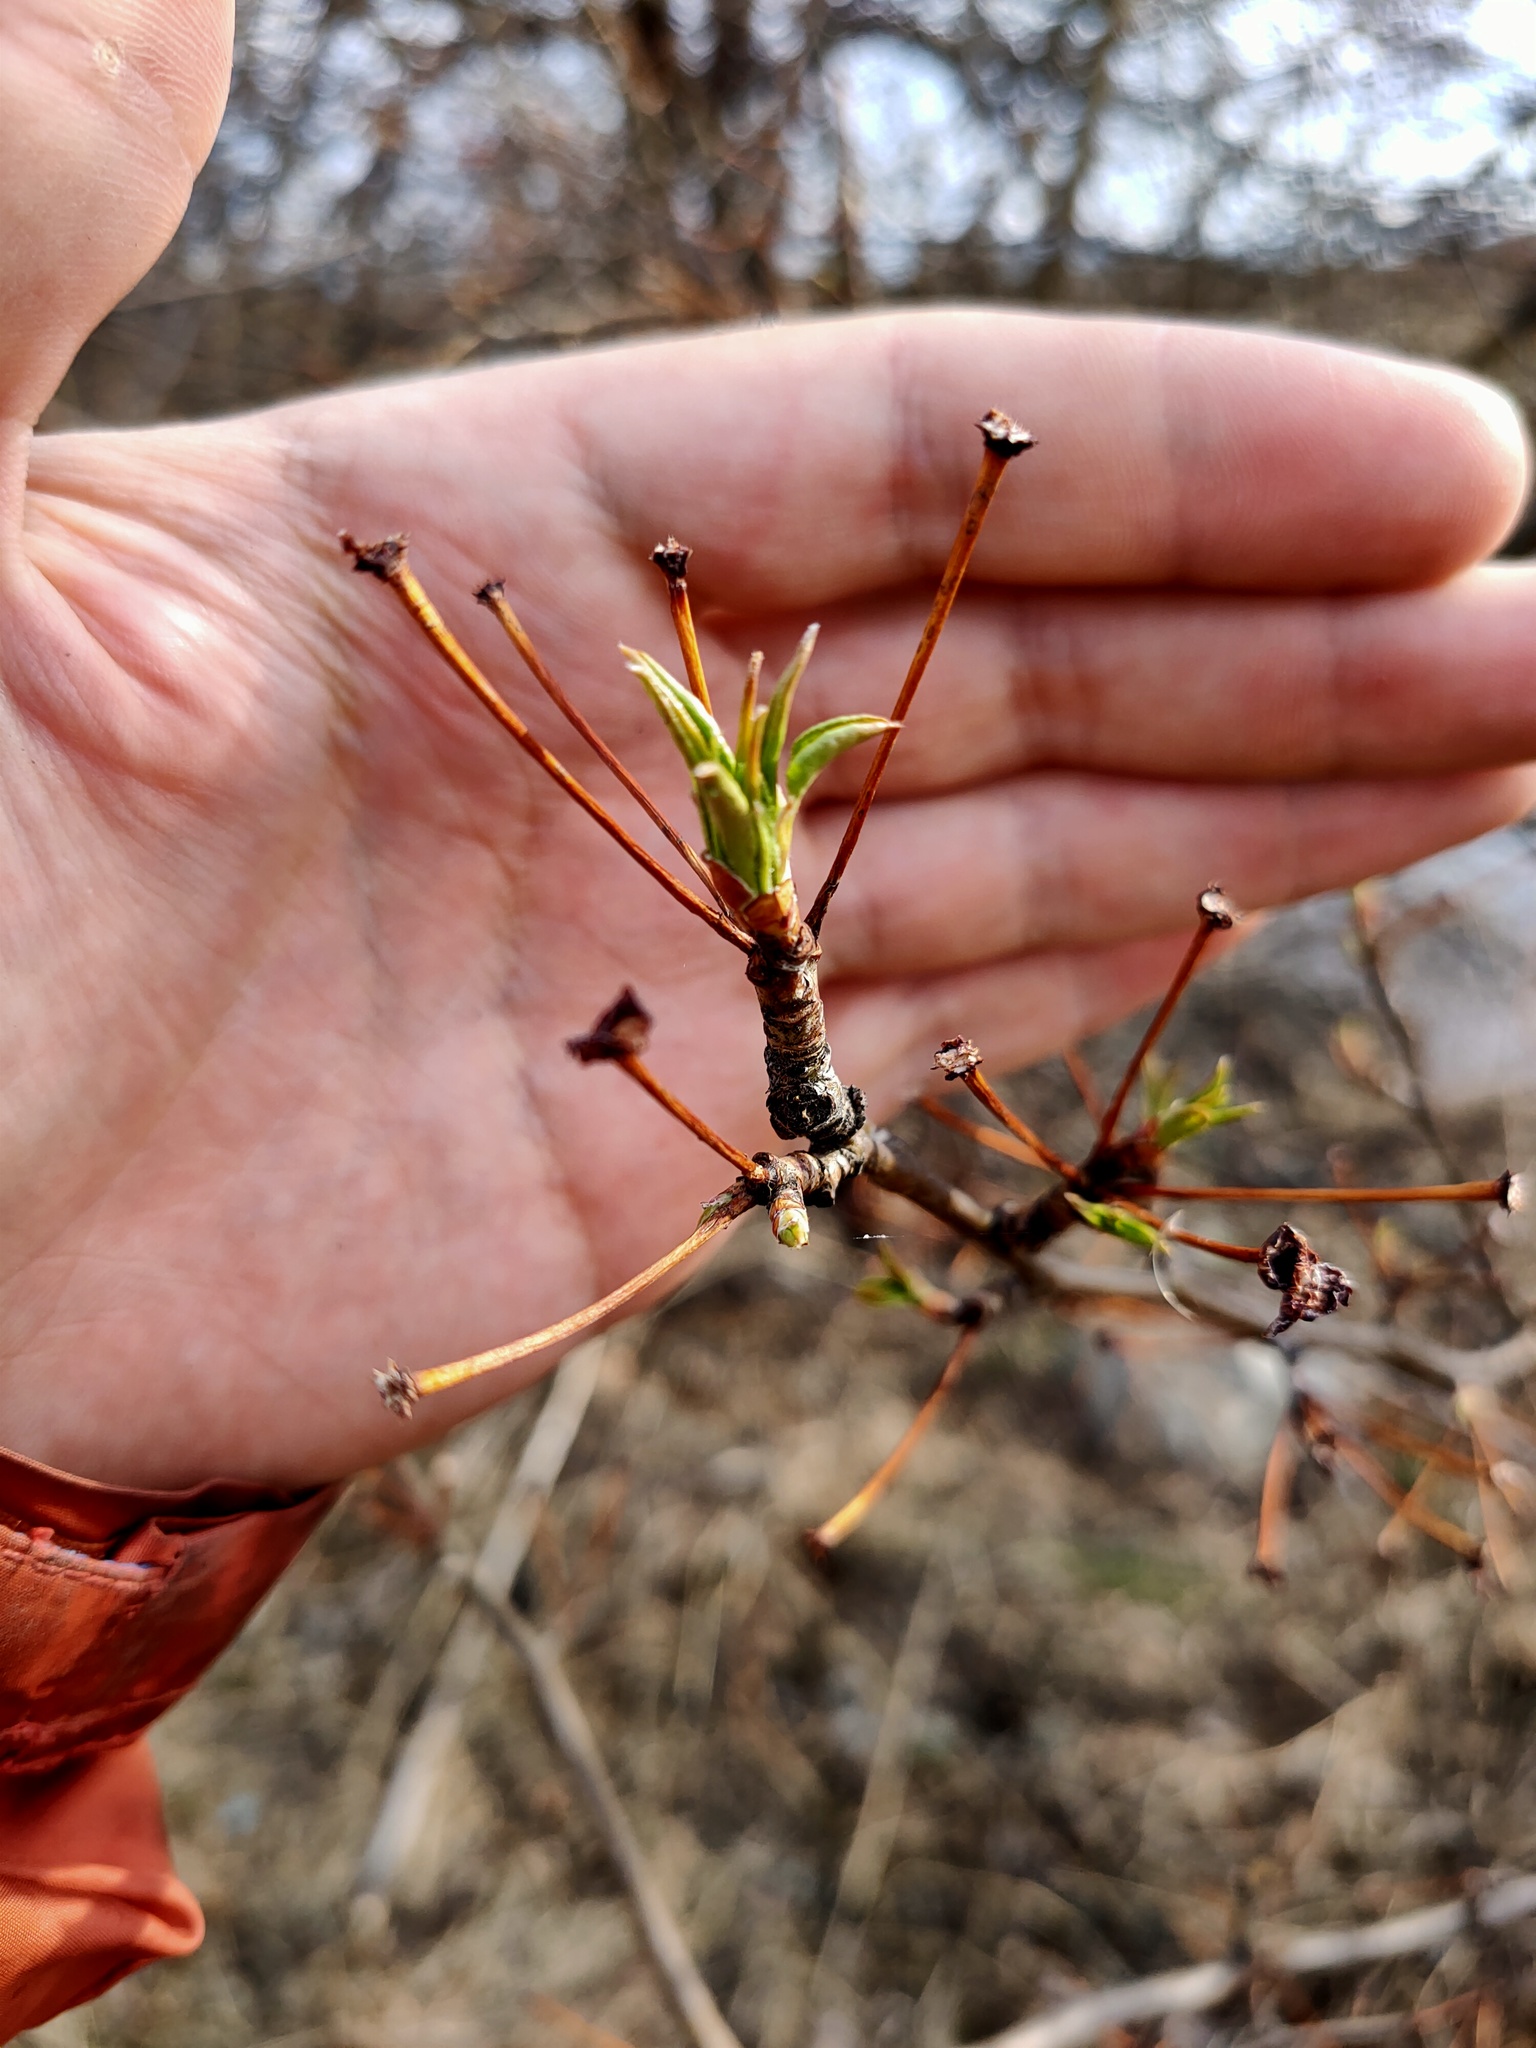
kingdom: Plantae
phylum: Tracheophyta
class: Magnoliopsida
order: Rosales
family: Rosaceae
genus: Malus
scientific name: Malus
